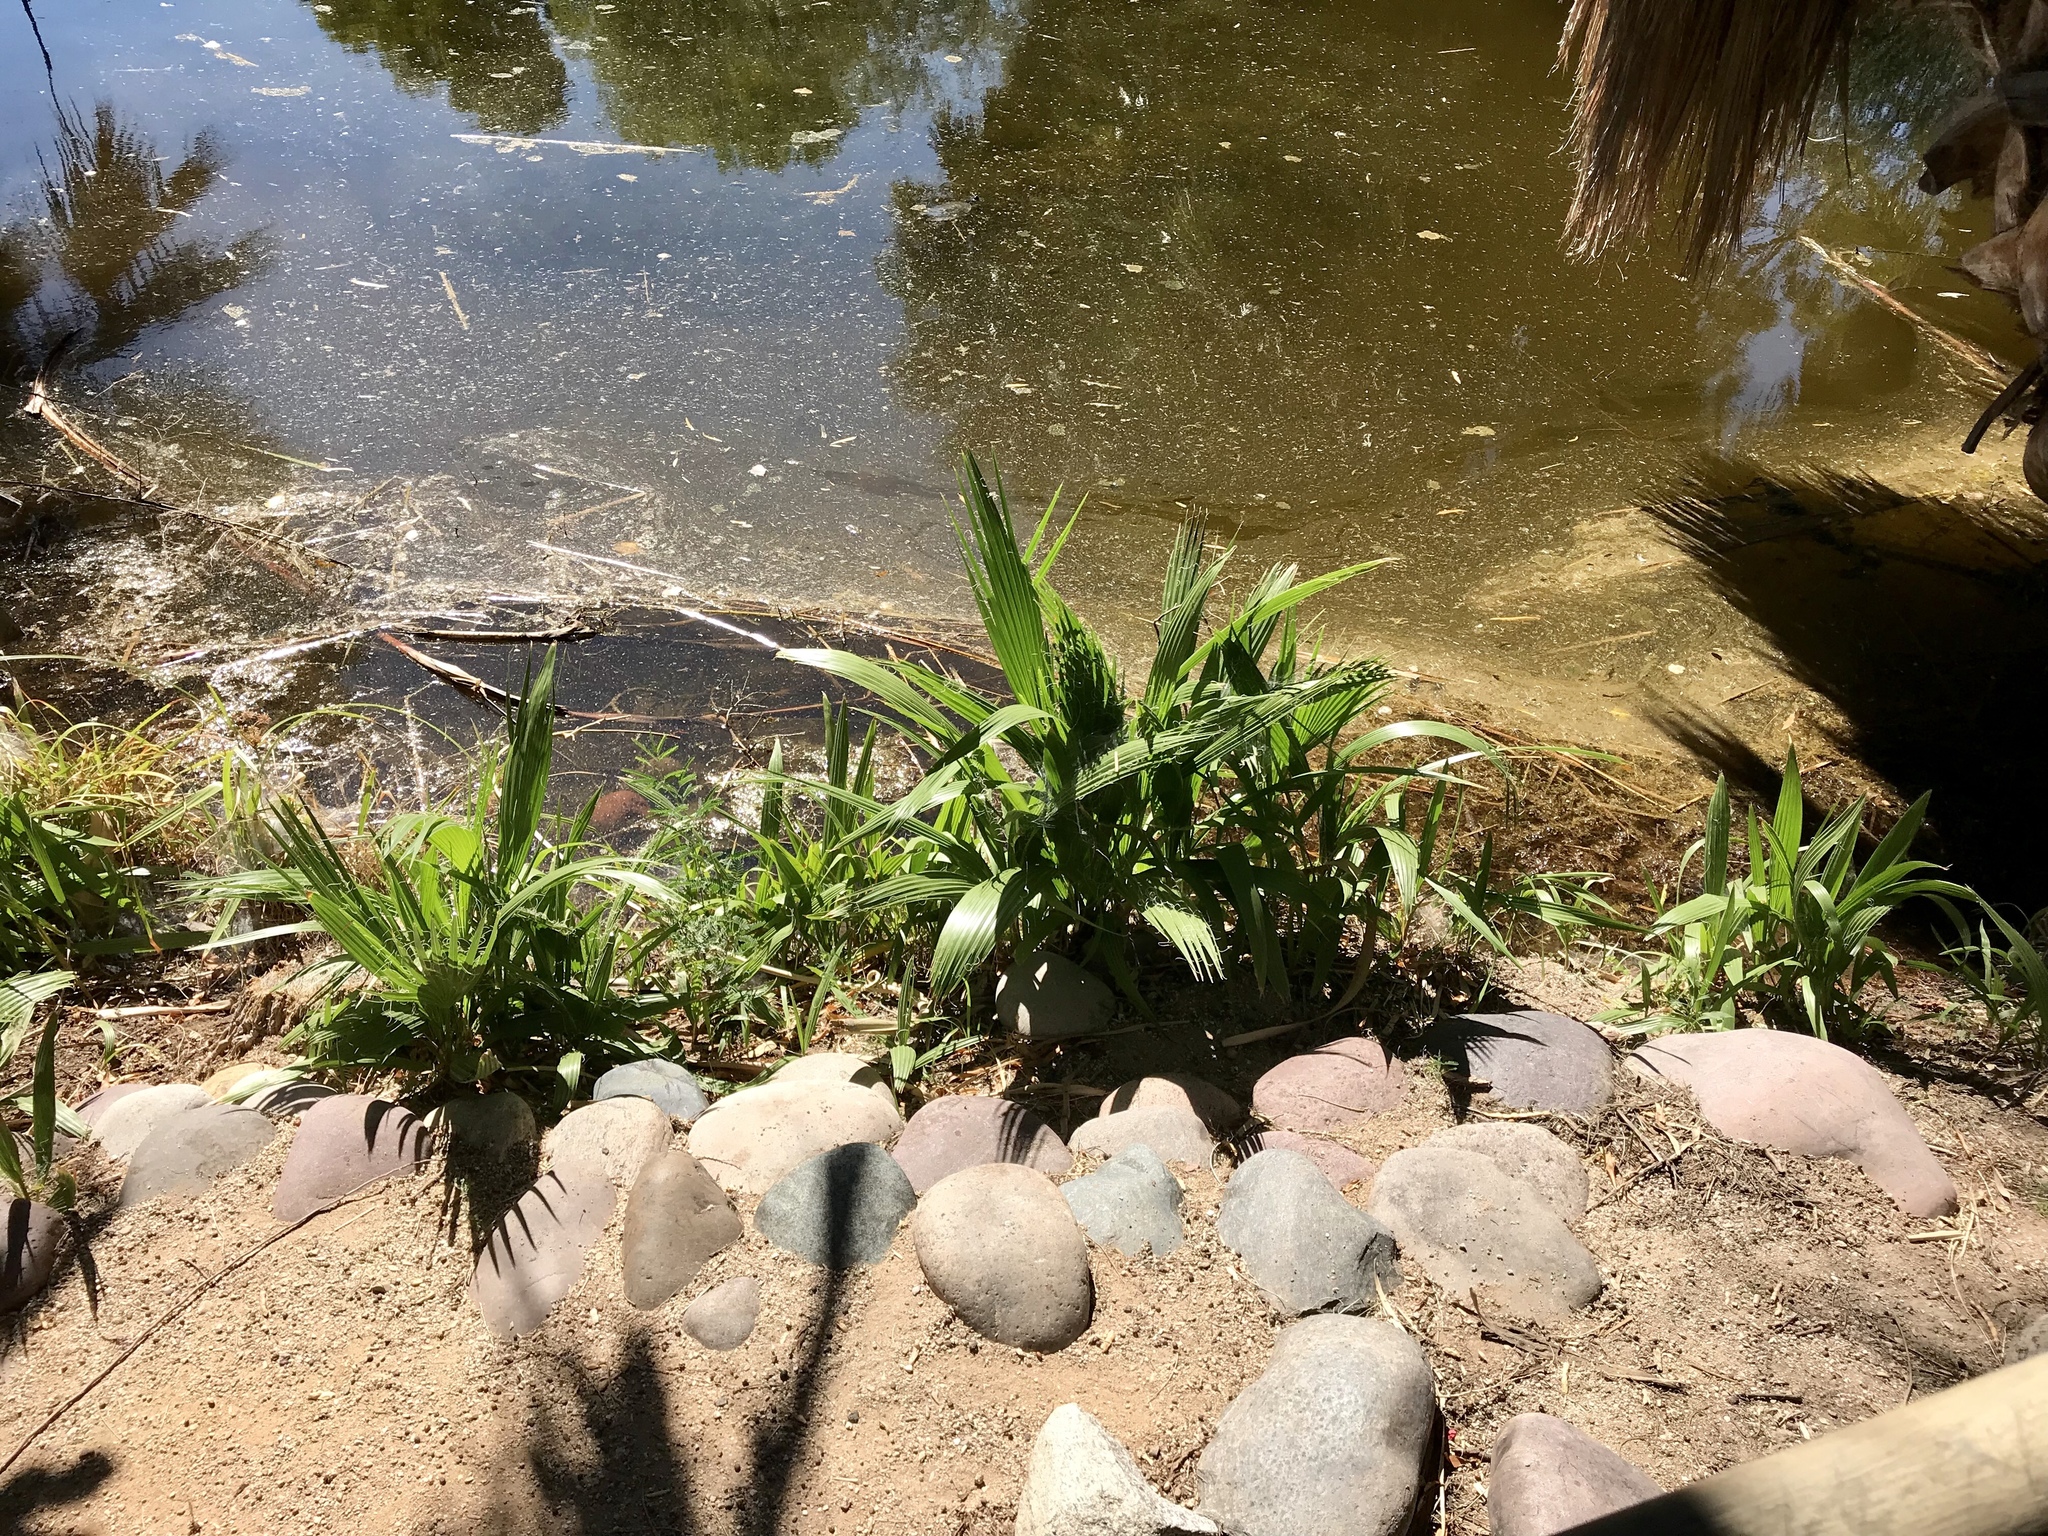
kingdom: Plantae
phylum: Tracheophyta
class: Liliopsida
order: Arecales
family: Arecaceae
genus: Washingtonia
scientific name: Washingtonia filifera
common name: California fan palm
